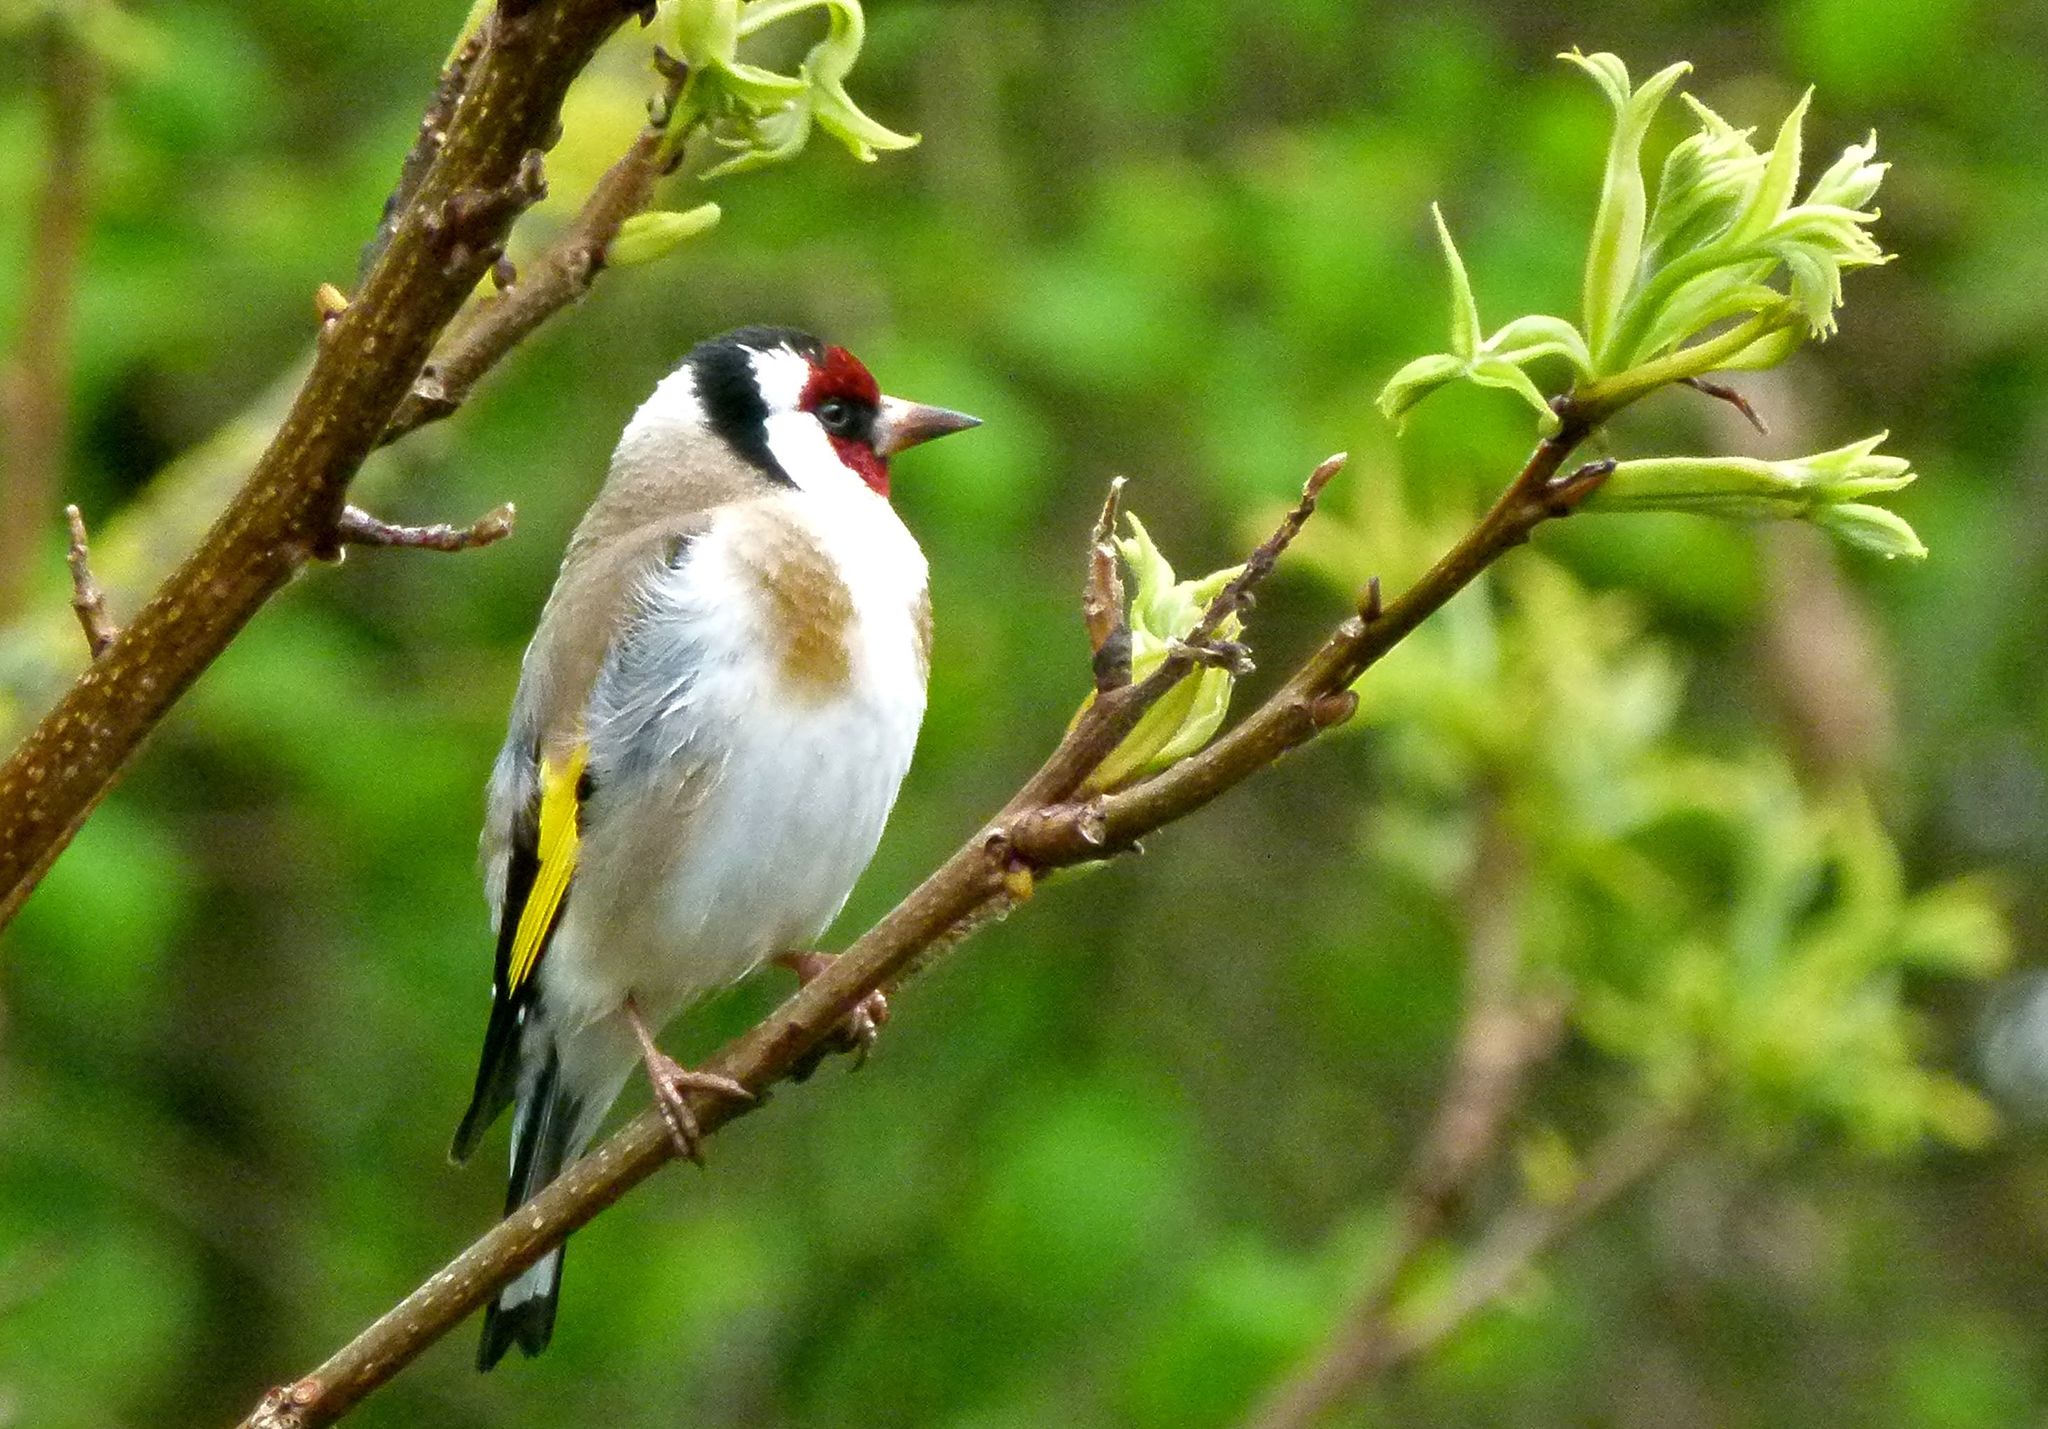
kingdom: Animalia
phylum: Chordata
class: Aves
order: Passeriformes
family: Fringillidae
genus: Carduelis
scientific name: Carduelis carduelis
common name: European goldfinch
